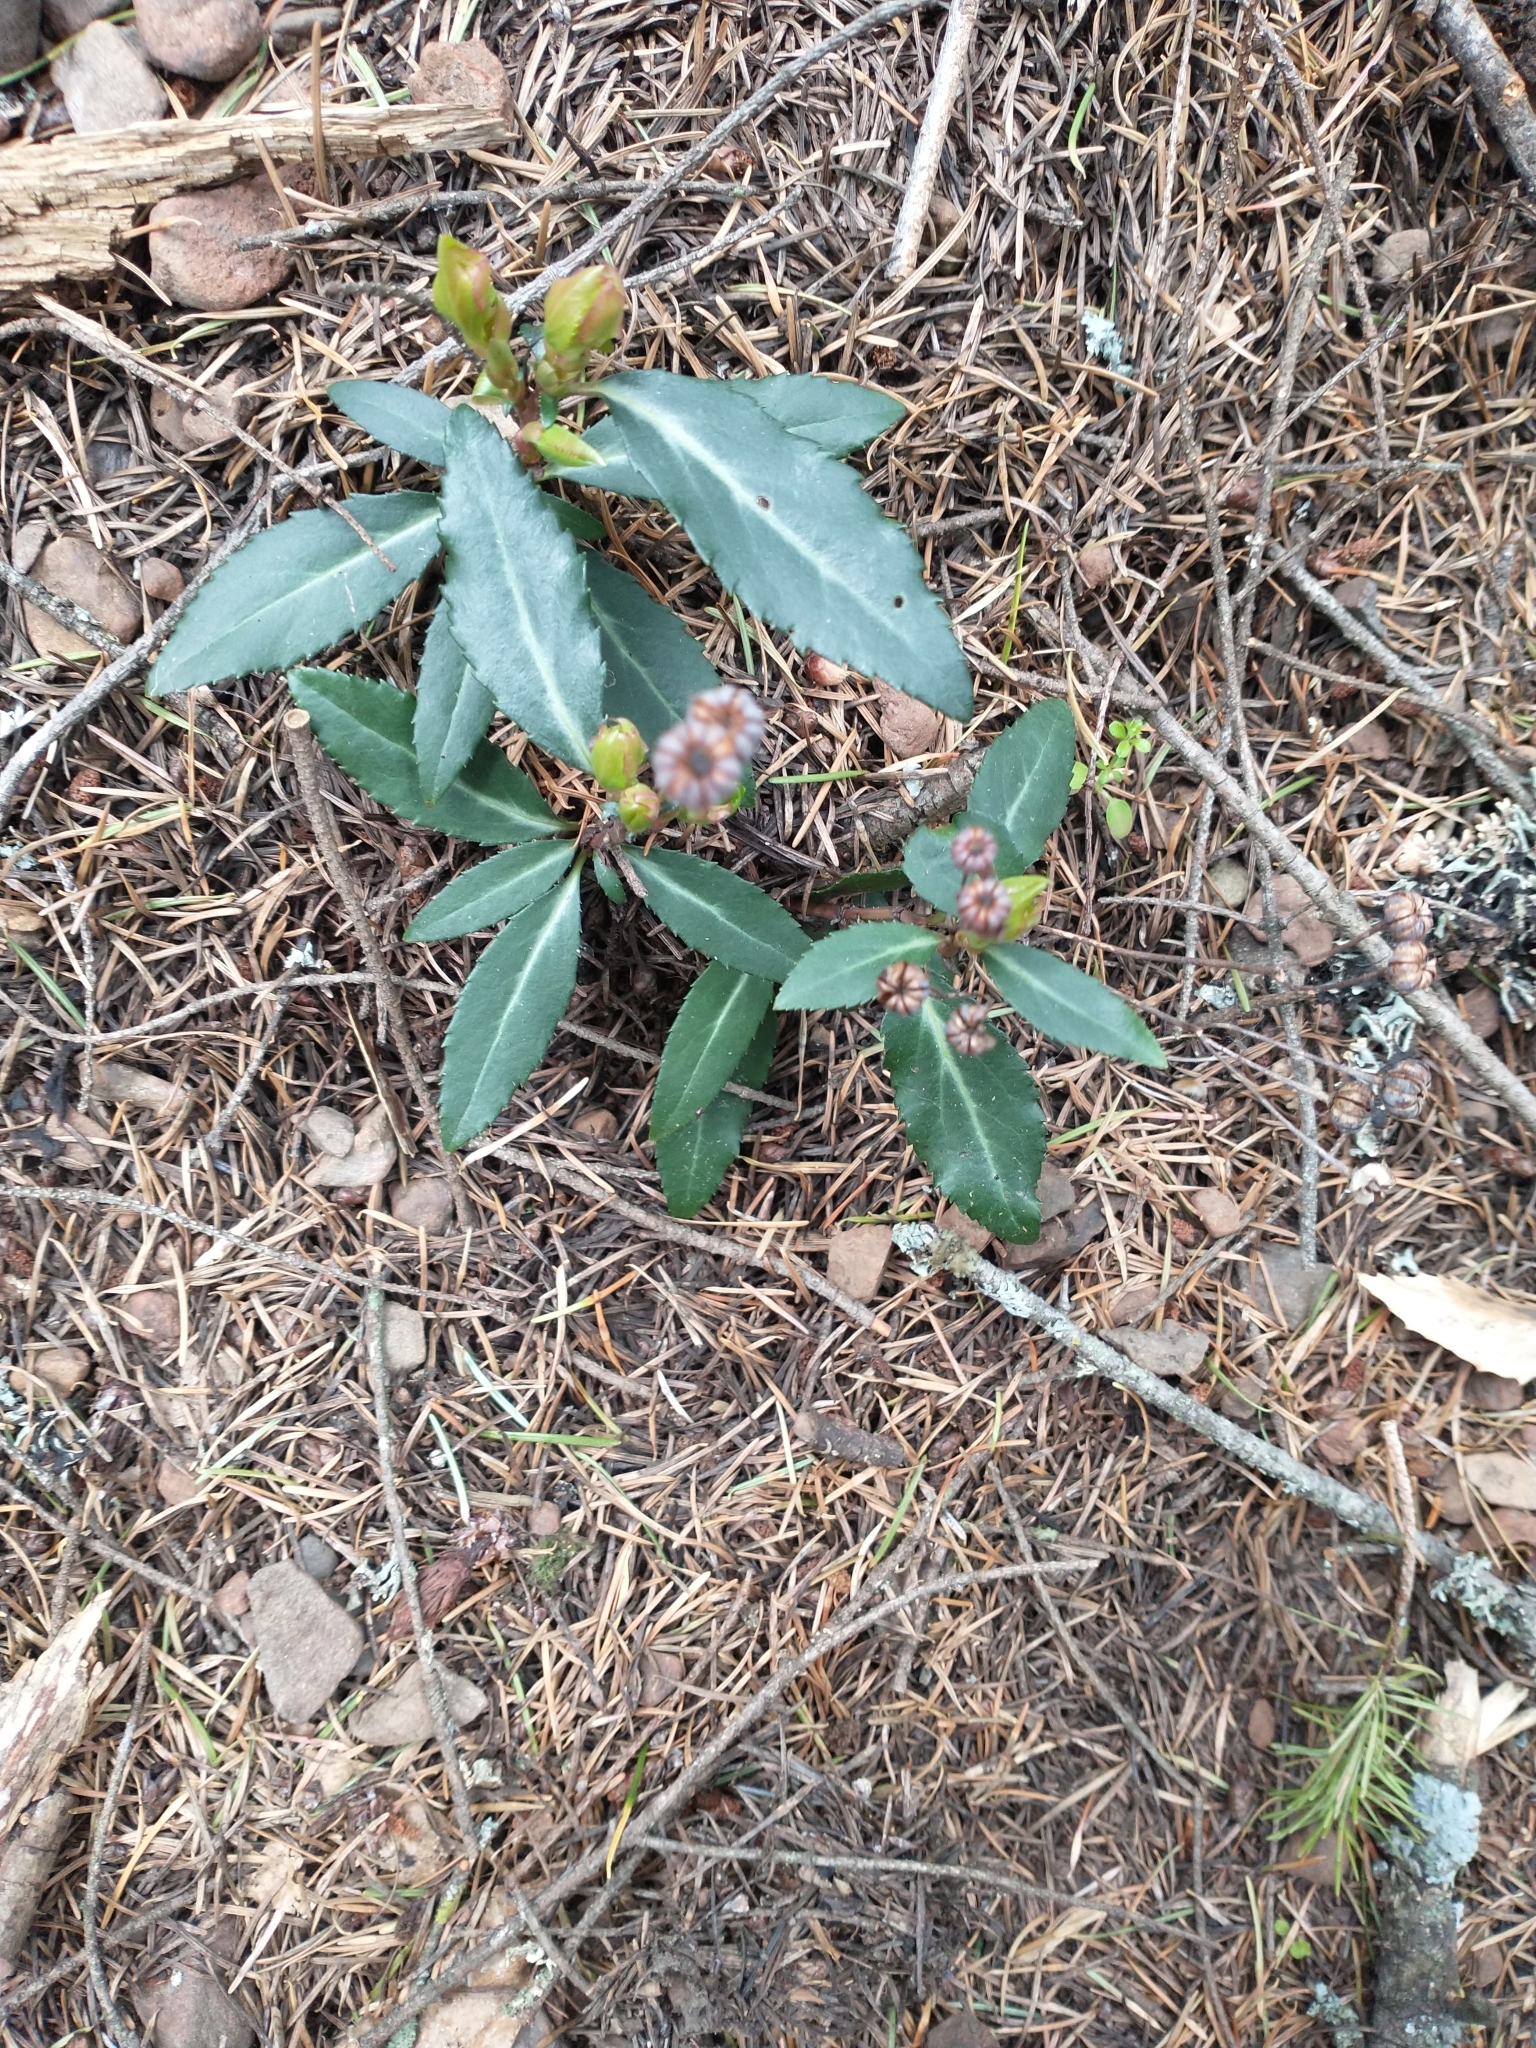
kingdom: Plantae
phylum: Tracheophyta
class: Magnoliopsida
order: Ericales
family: Ericaceae
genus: Chimaphila
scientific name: Chimaphila menziesii
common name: Menzies' pipsissewa
